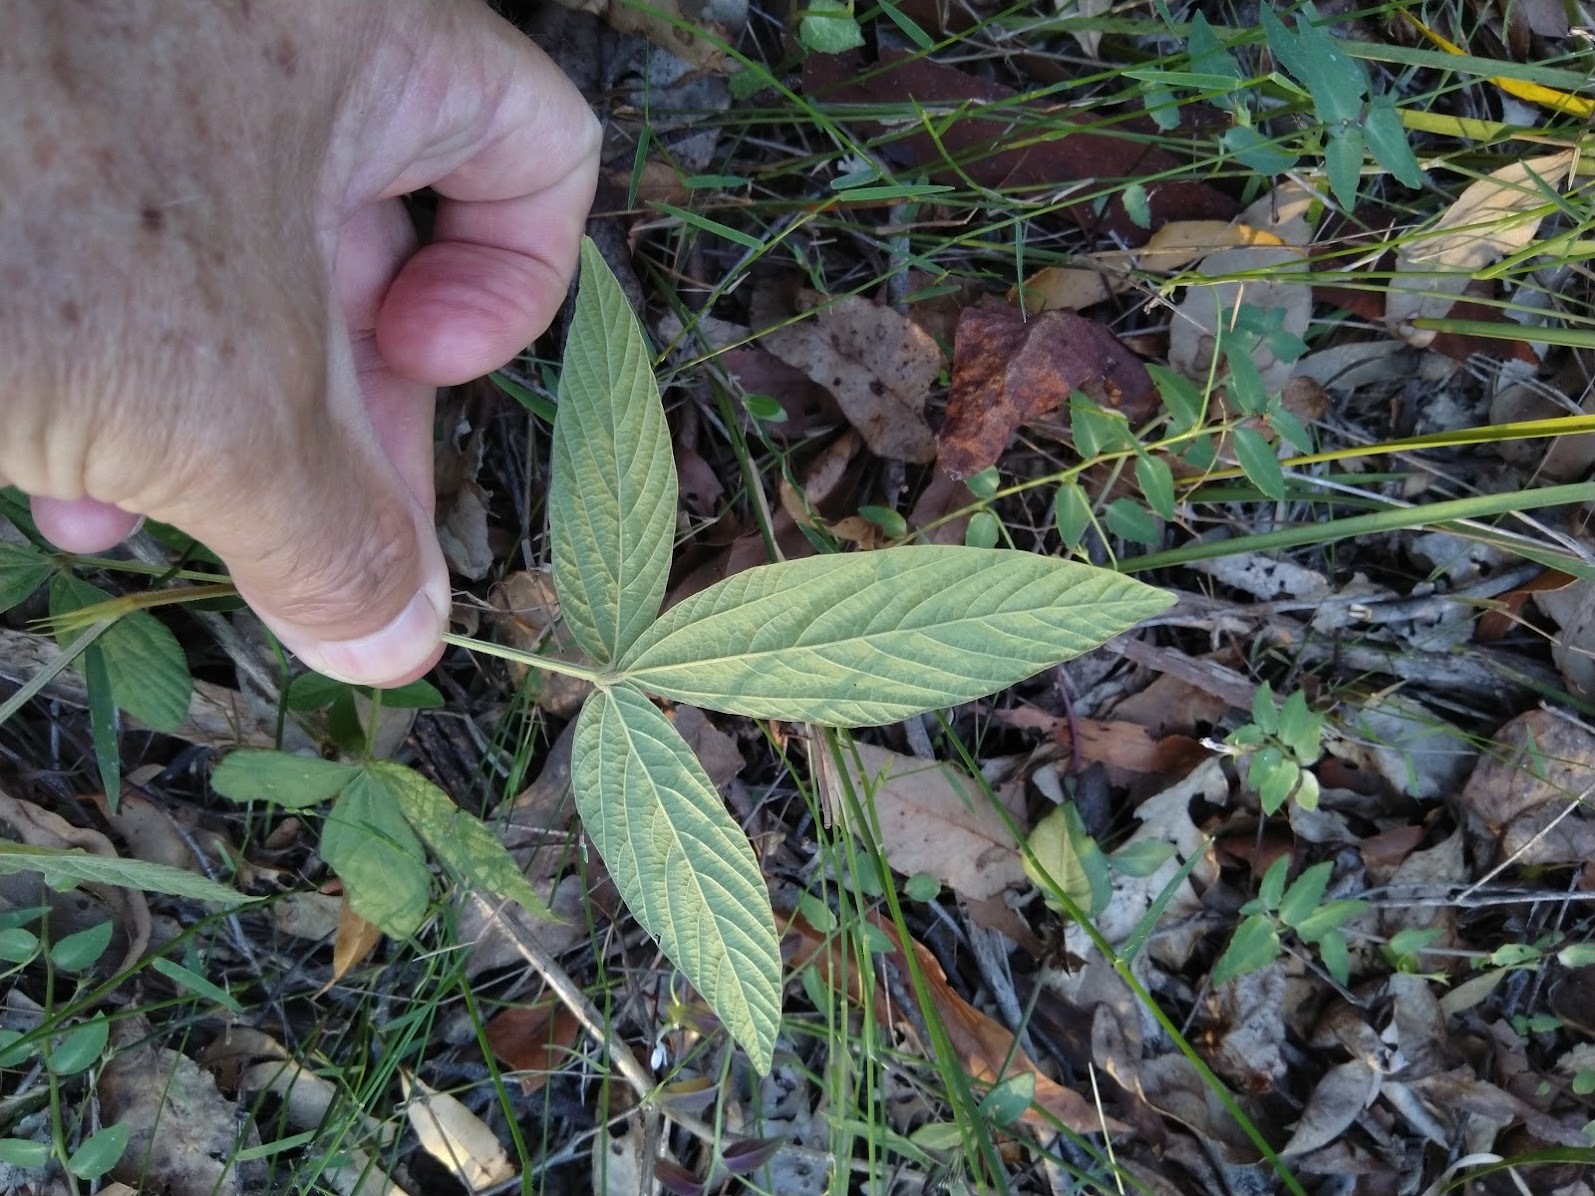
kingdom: Plantae
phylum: Tracheophyta
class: Magnoliopsida
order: Fabales
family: Fabaceae
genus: Flemingia
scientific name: Flemingia parviflora
